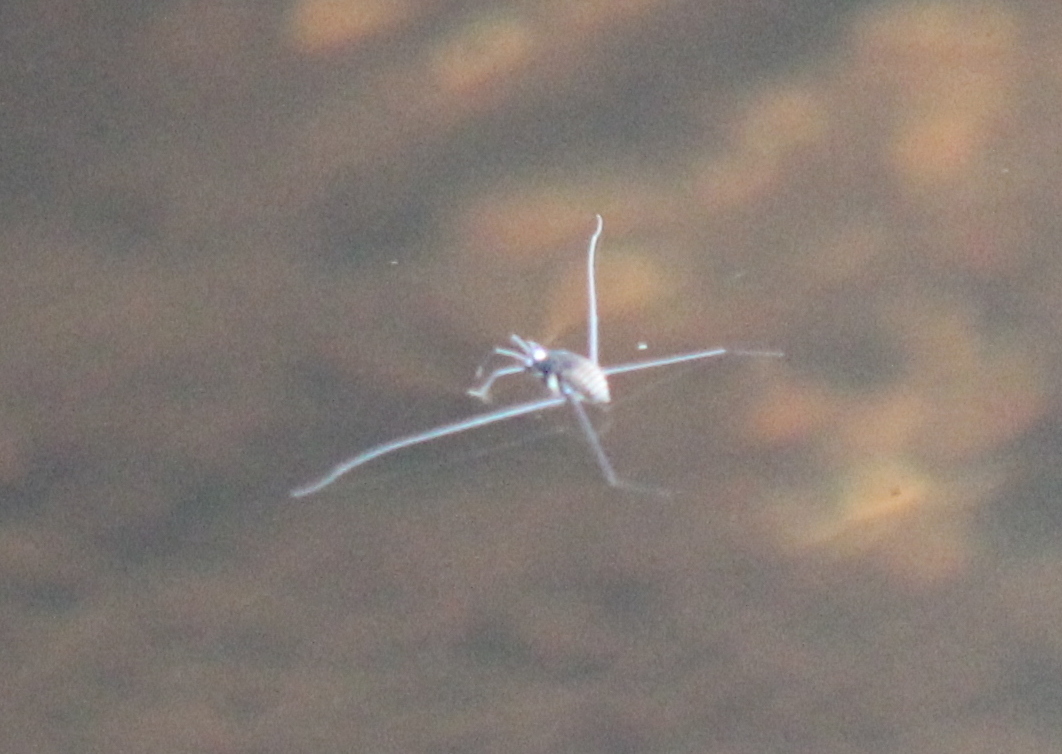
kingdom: Animalia
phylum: Arthropoda
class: Insecta
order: Hemiptera
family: Gerridae
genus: Metrobates
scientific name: Metrobates hesperius
